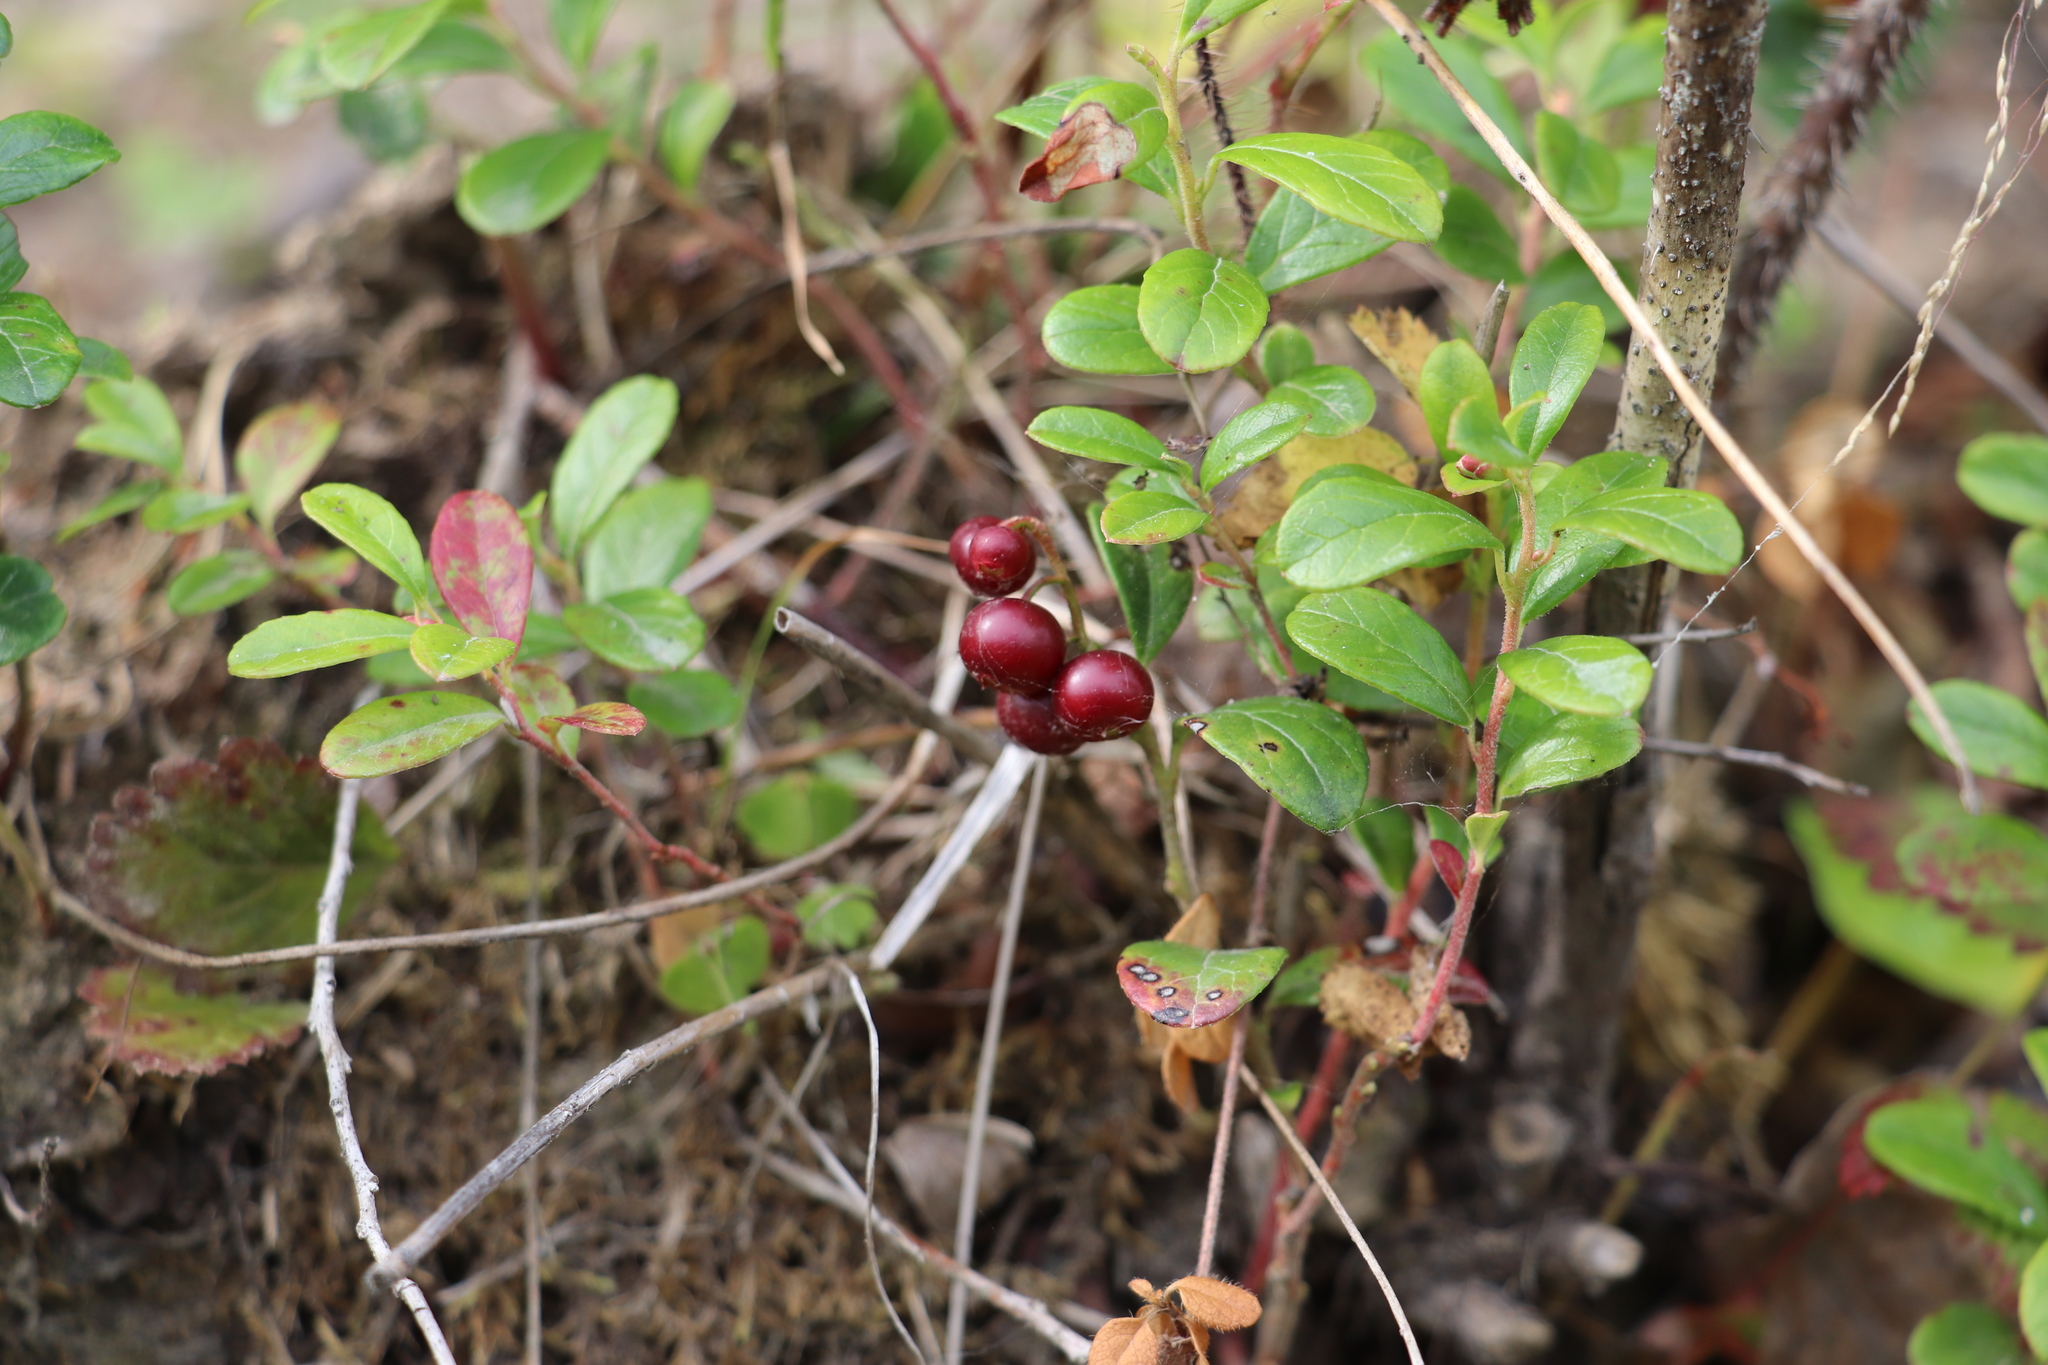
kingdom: Plantae
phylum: Tracheophyta
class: Magnoliopsida
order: Ericales
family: Ericaceae
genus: Vaccinium
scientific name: Vaccinium vitis-idaea
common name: Cowberry
